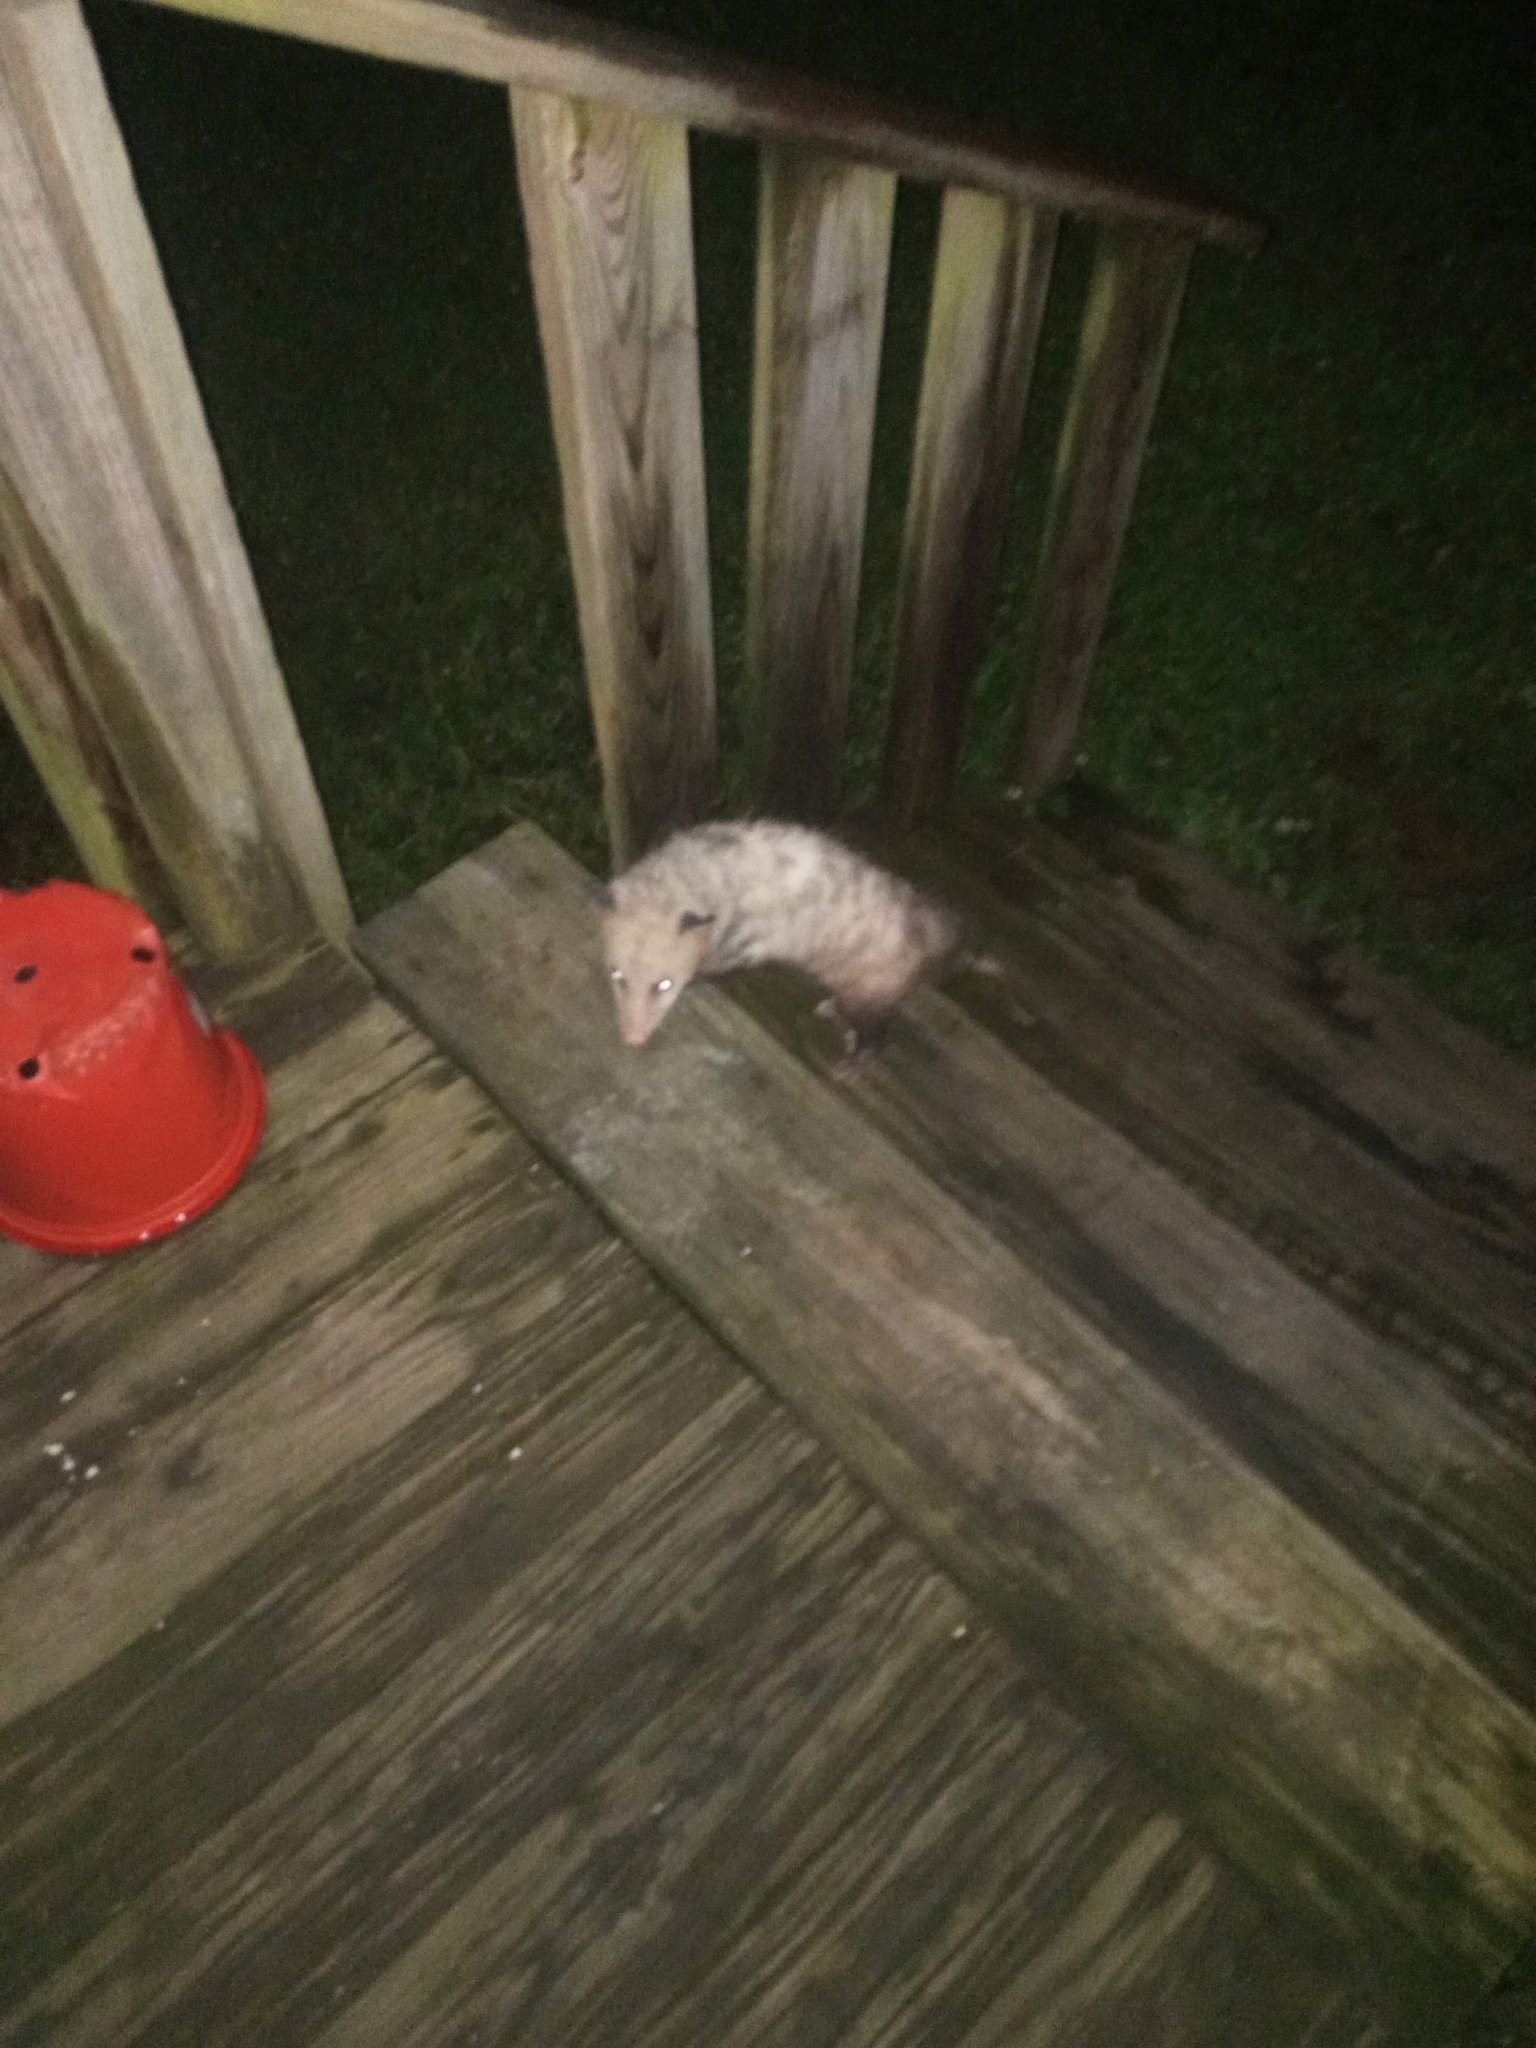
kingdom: Animalia
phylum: Chordata
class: Mammalia
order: Didelphimorphia
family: Didelphidae
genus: Didelphis
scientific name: Didelphis virginiana
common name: Virginia opossum
